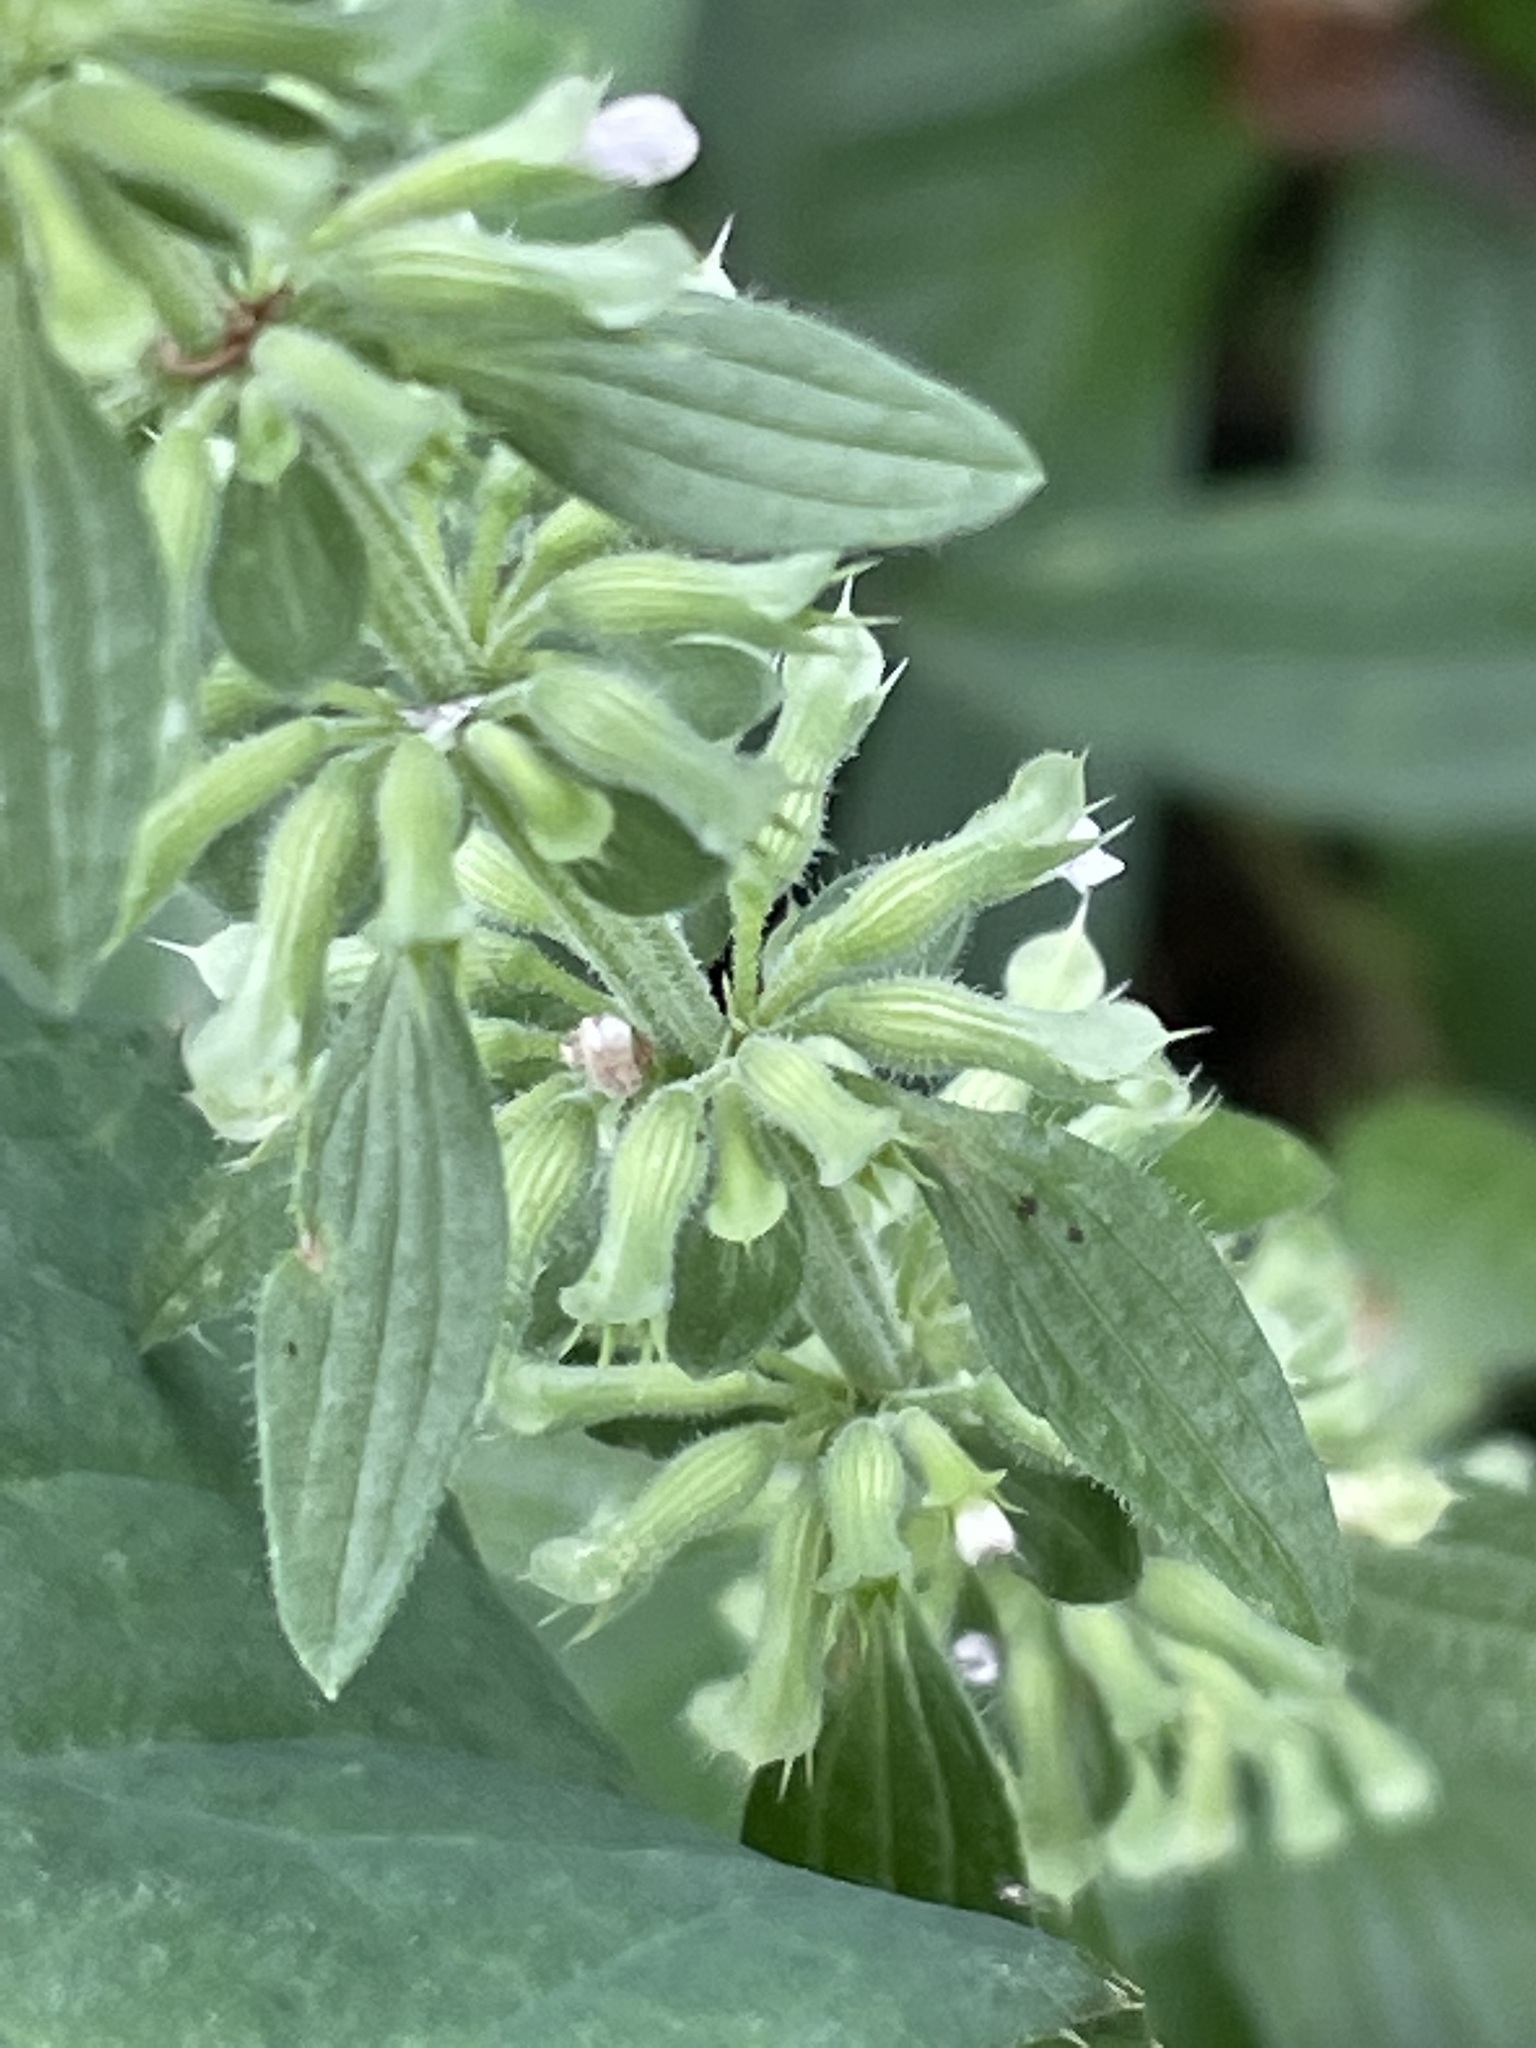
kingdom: Plantae
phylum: Tracheophyta
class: Magnoliopsida
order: Lamiales
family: Lamiaceae
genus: Dracocephalum
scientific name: Dracocephalum thymiflorum
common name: Thymeleaf dragonhead
